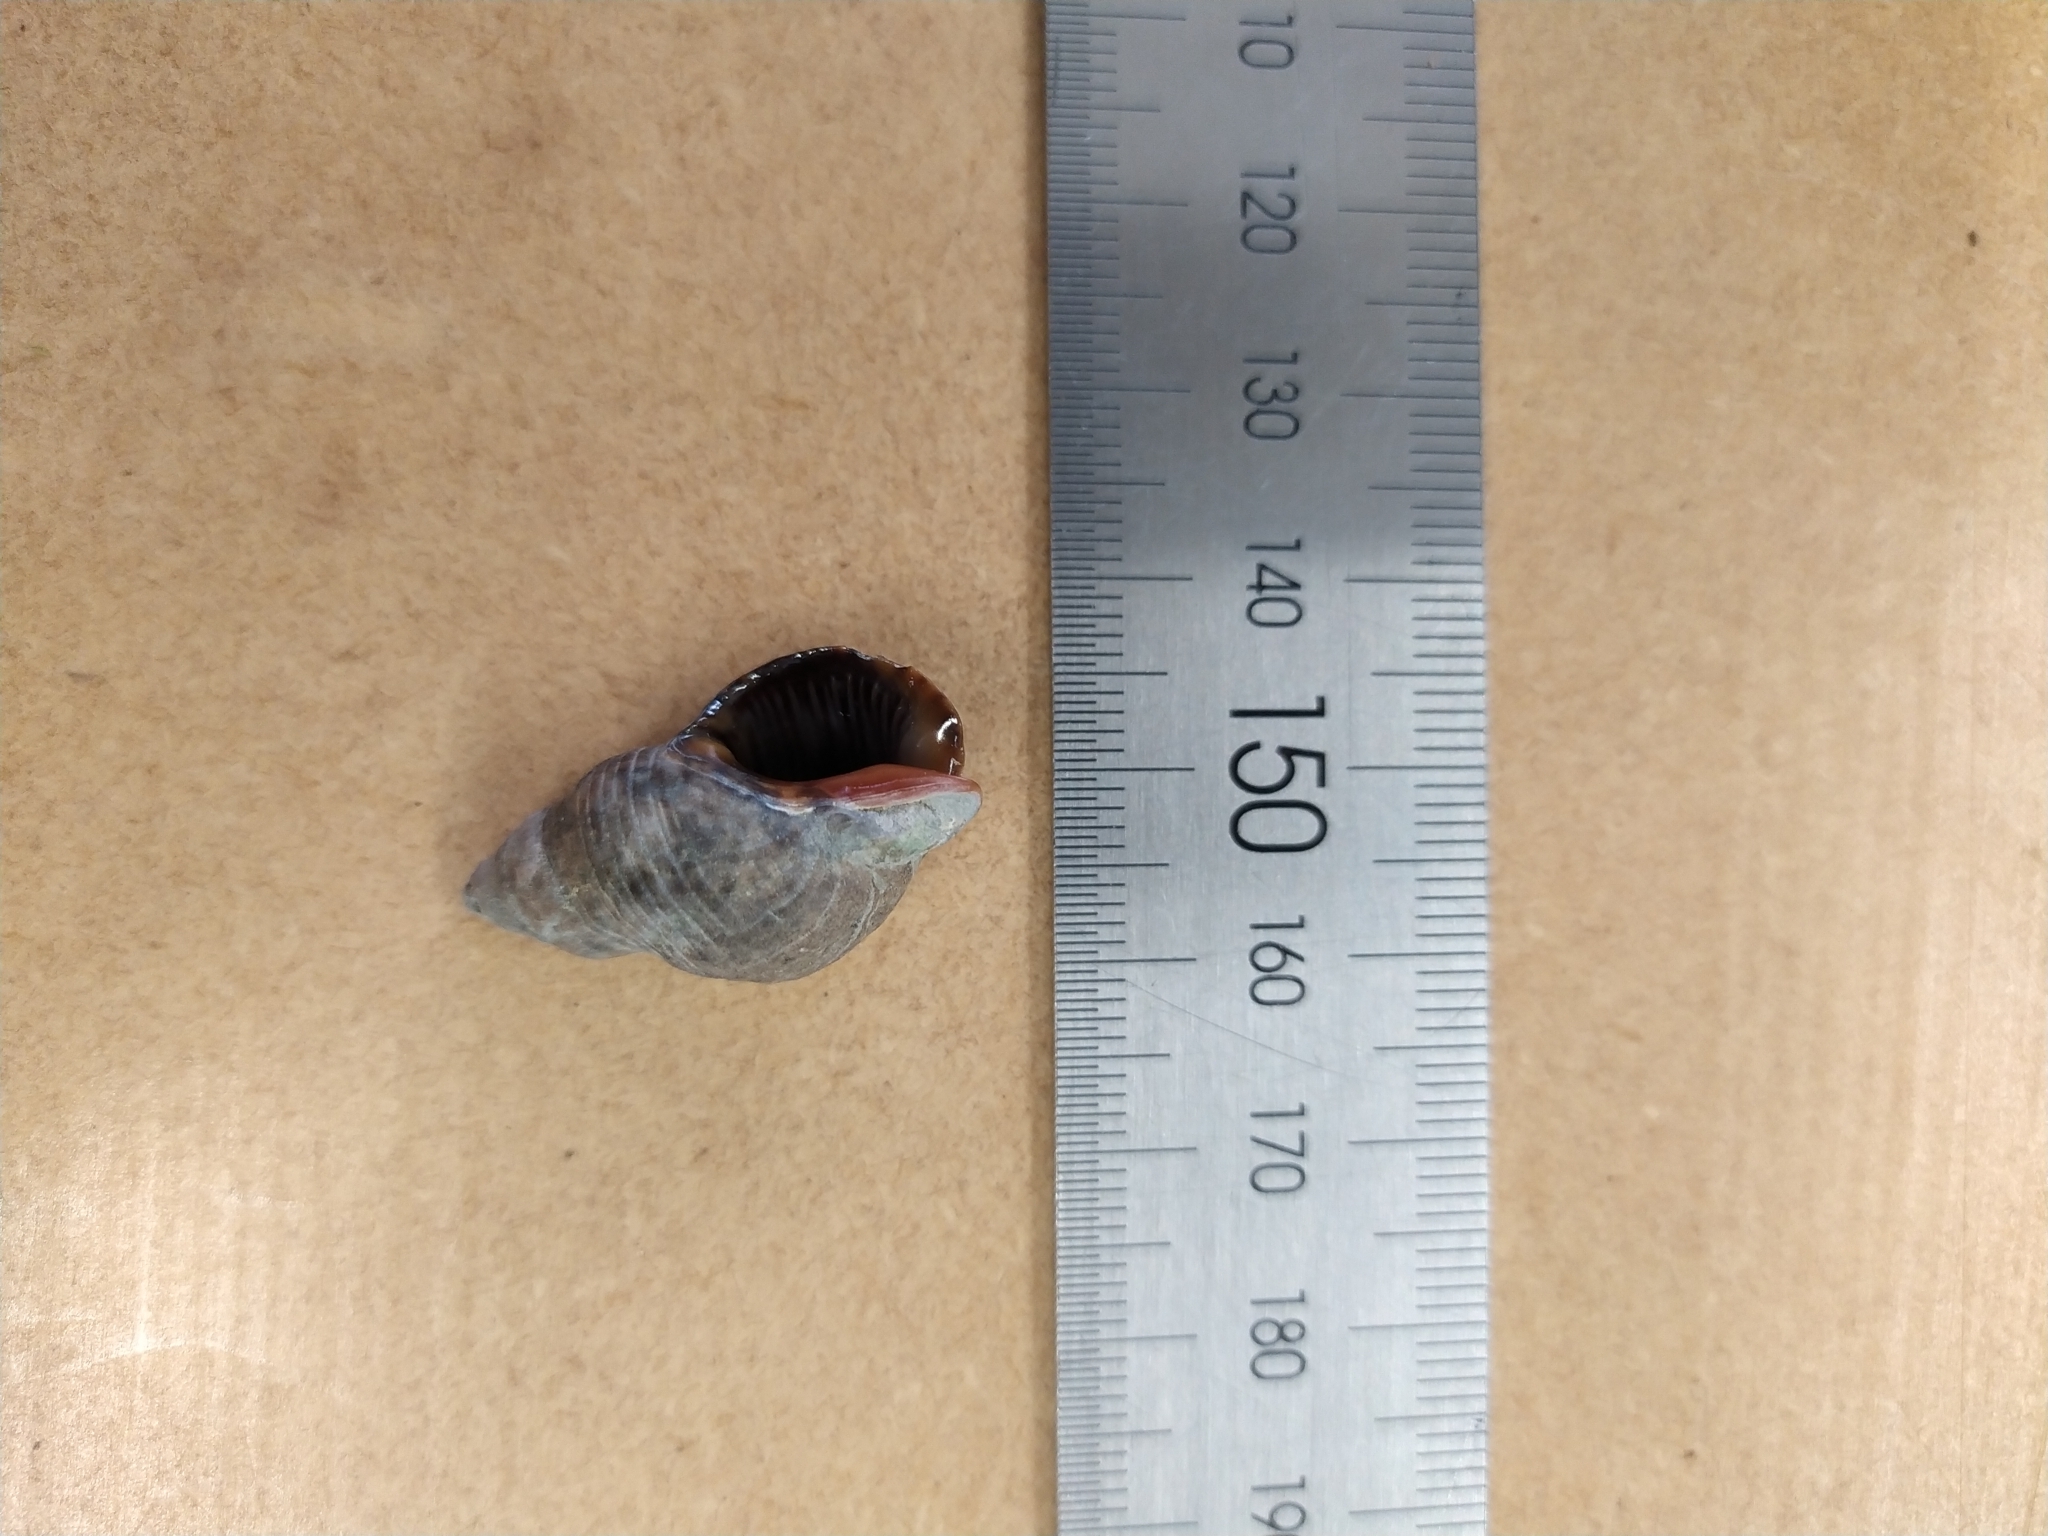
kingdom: Animalia
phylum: Mollusca
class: Gastropoda
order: Neogastropoda
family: Cominellidae
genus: Cominella
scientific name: Cominella virgata
